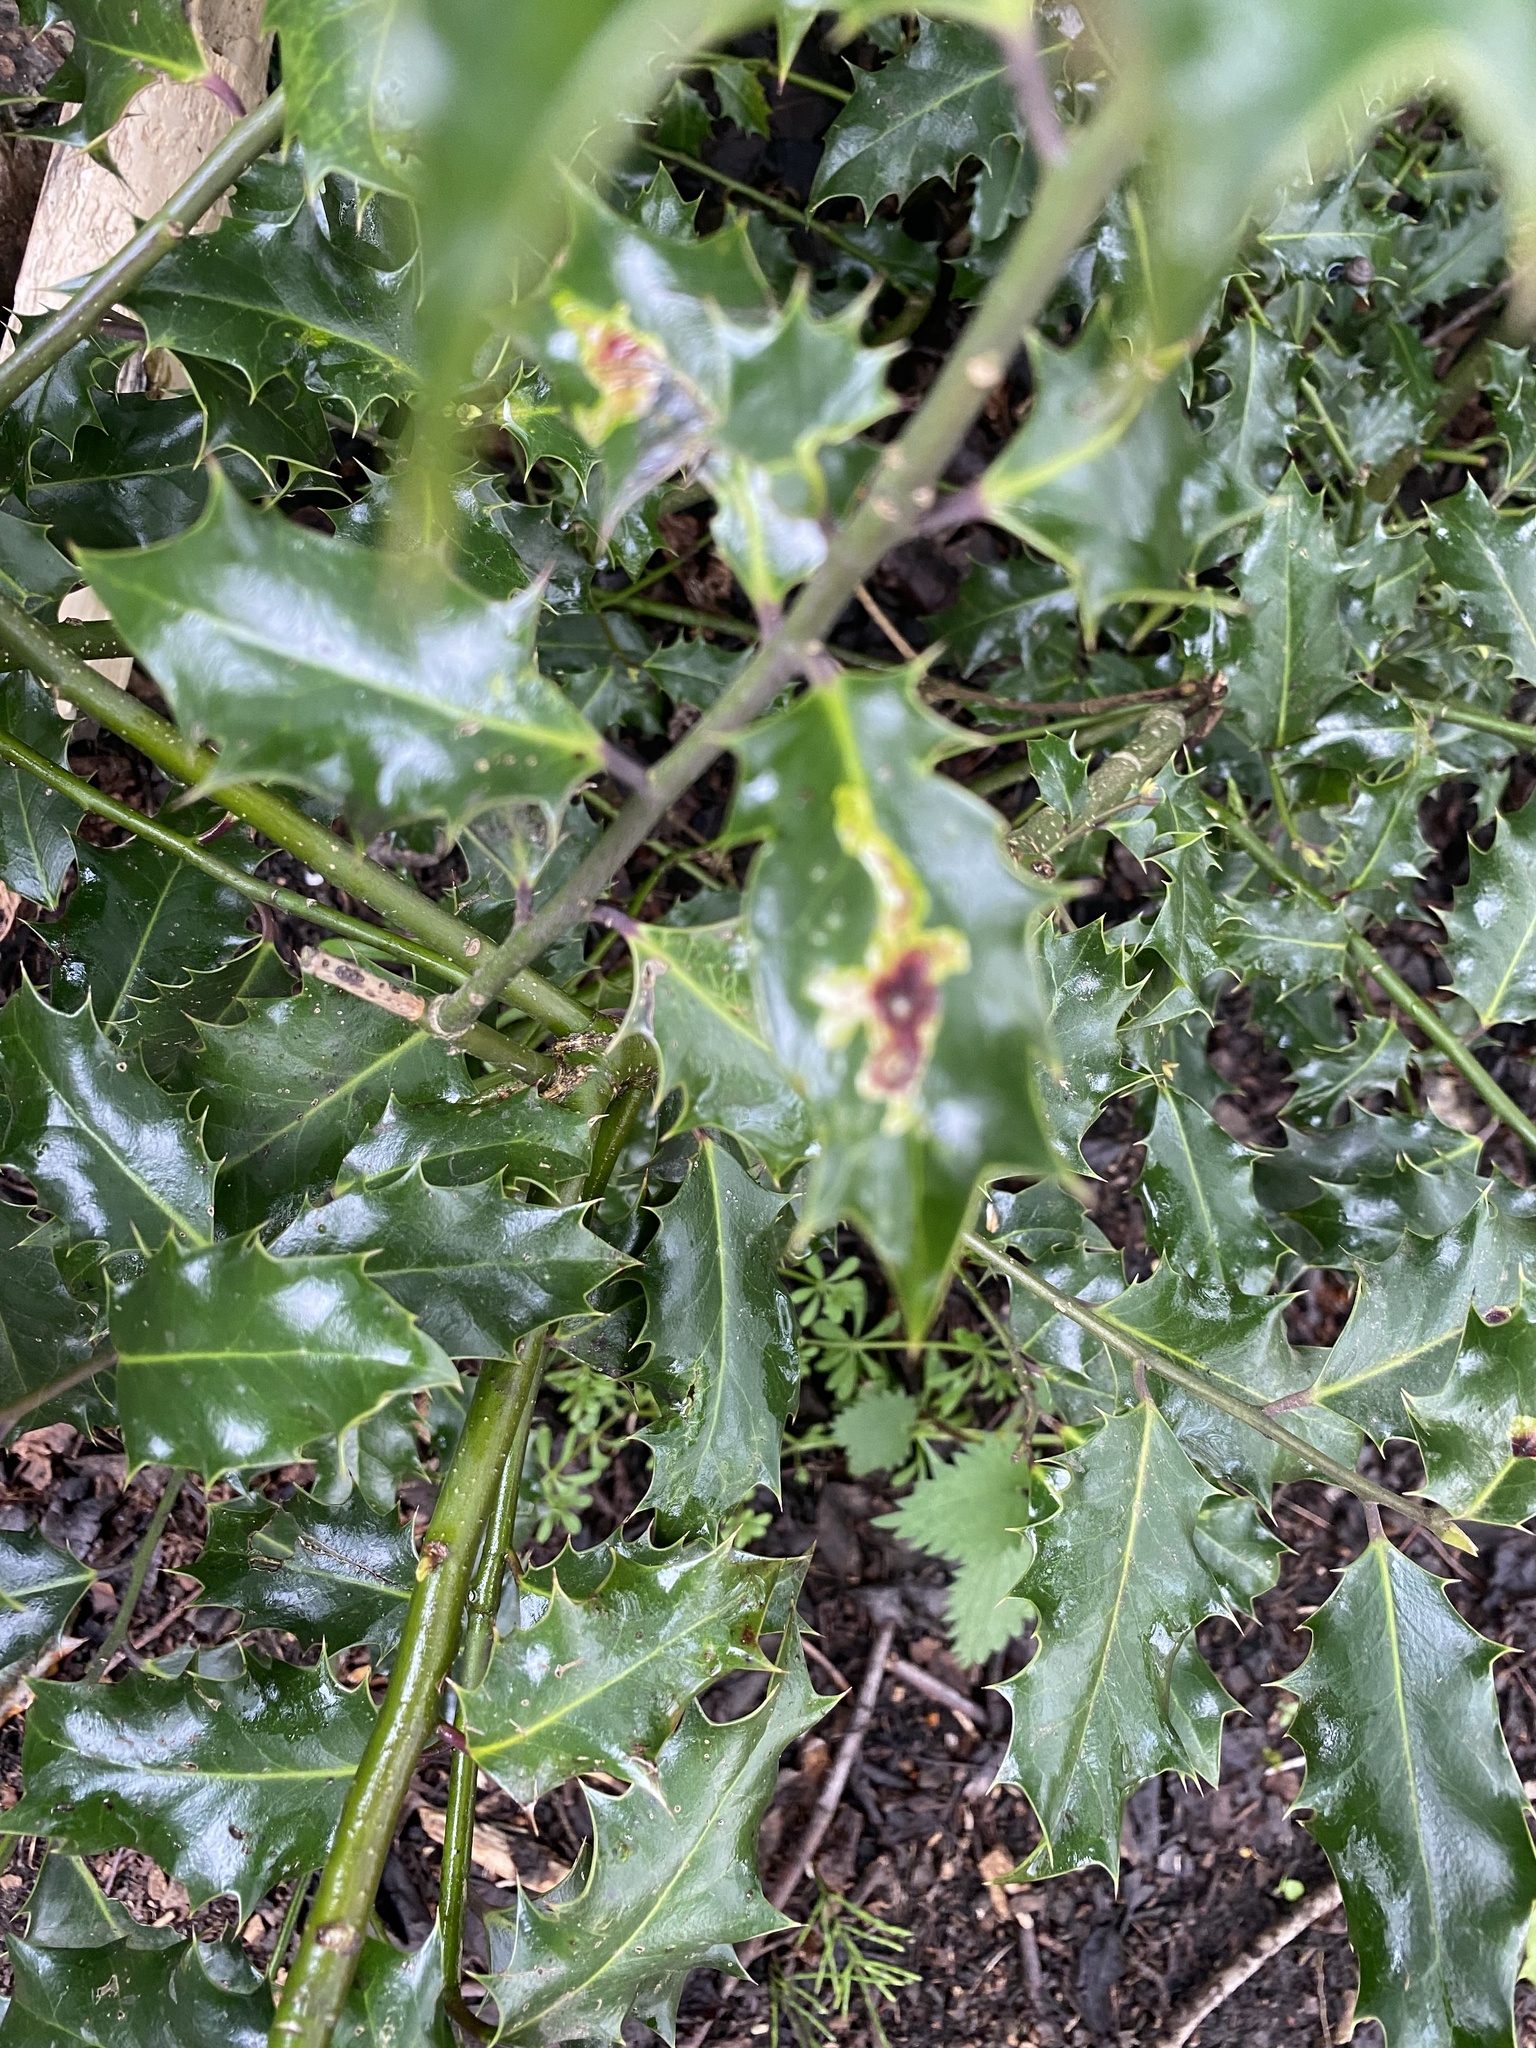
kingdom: Animalia
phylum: Arthropoda
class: Insecta
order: Diptera
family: Agromyzidae
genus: Phytomyza
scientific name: Phytomyza ilicis
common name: Holly leafminer
